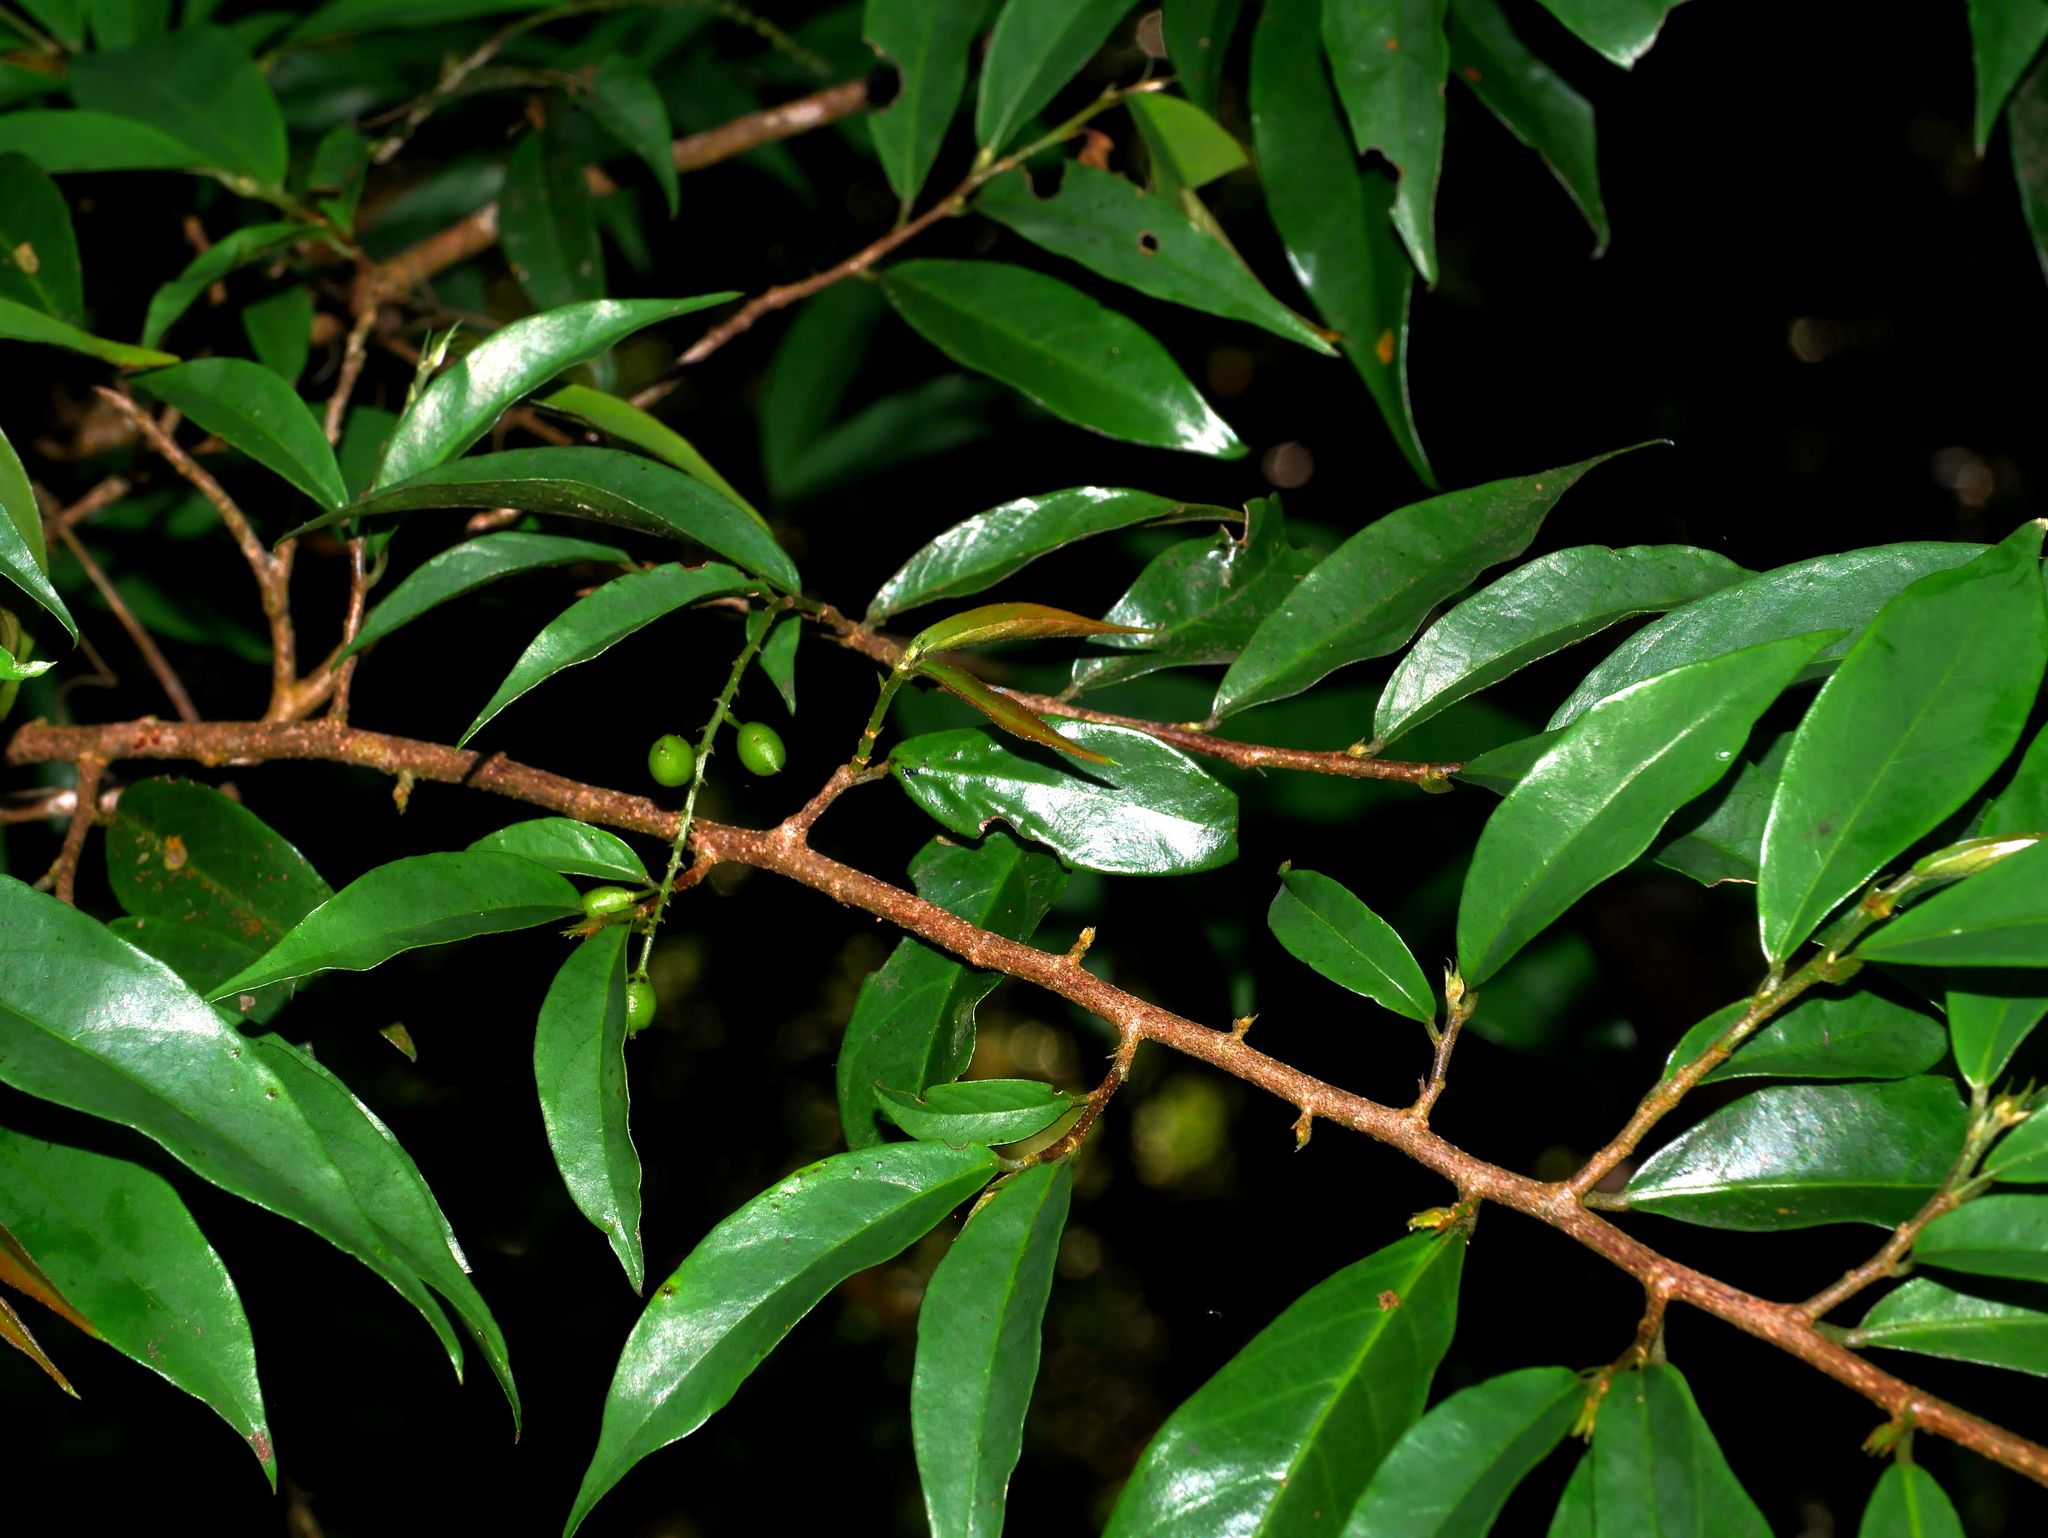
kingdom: Plantae
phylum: Tracheophyta
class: Magnoliopsida
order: Malpighiales
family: Phyllanthaceae
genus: Antidesma
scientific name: Antidesma japonicum
